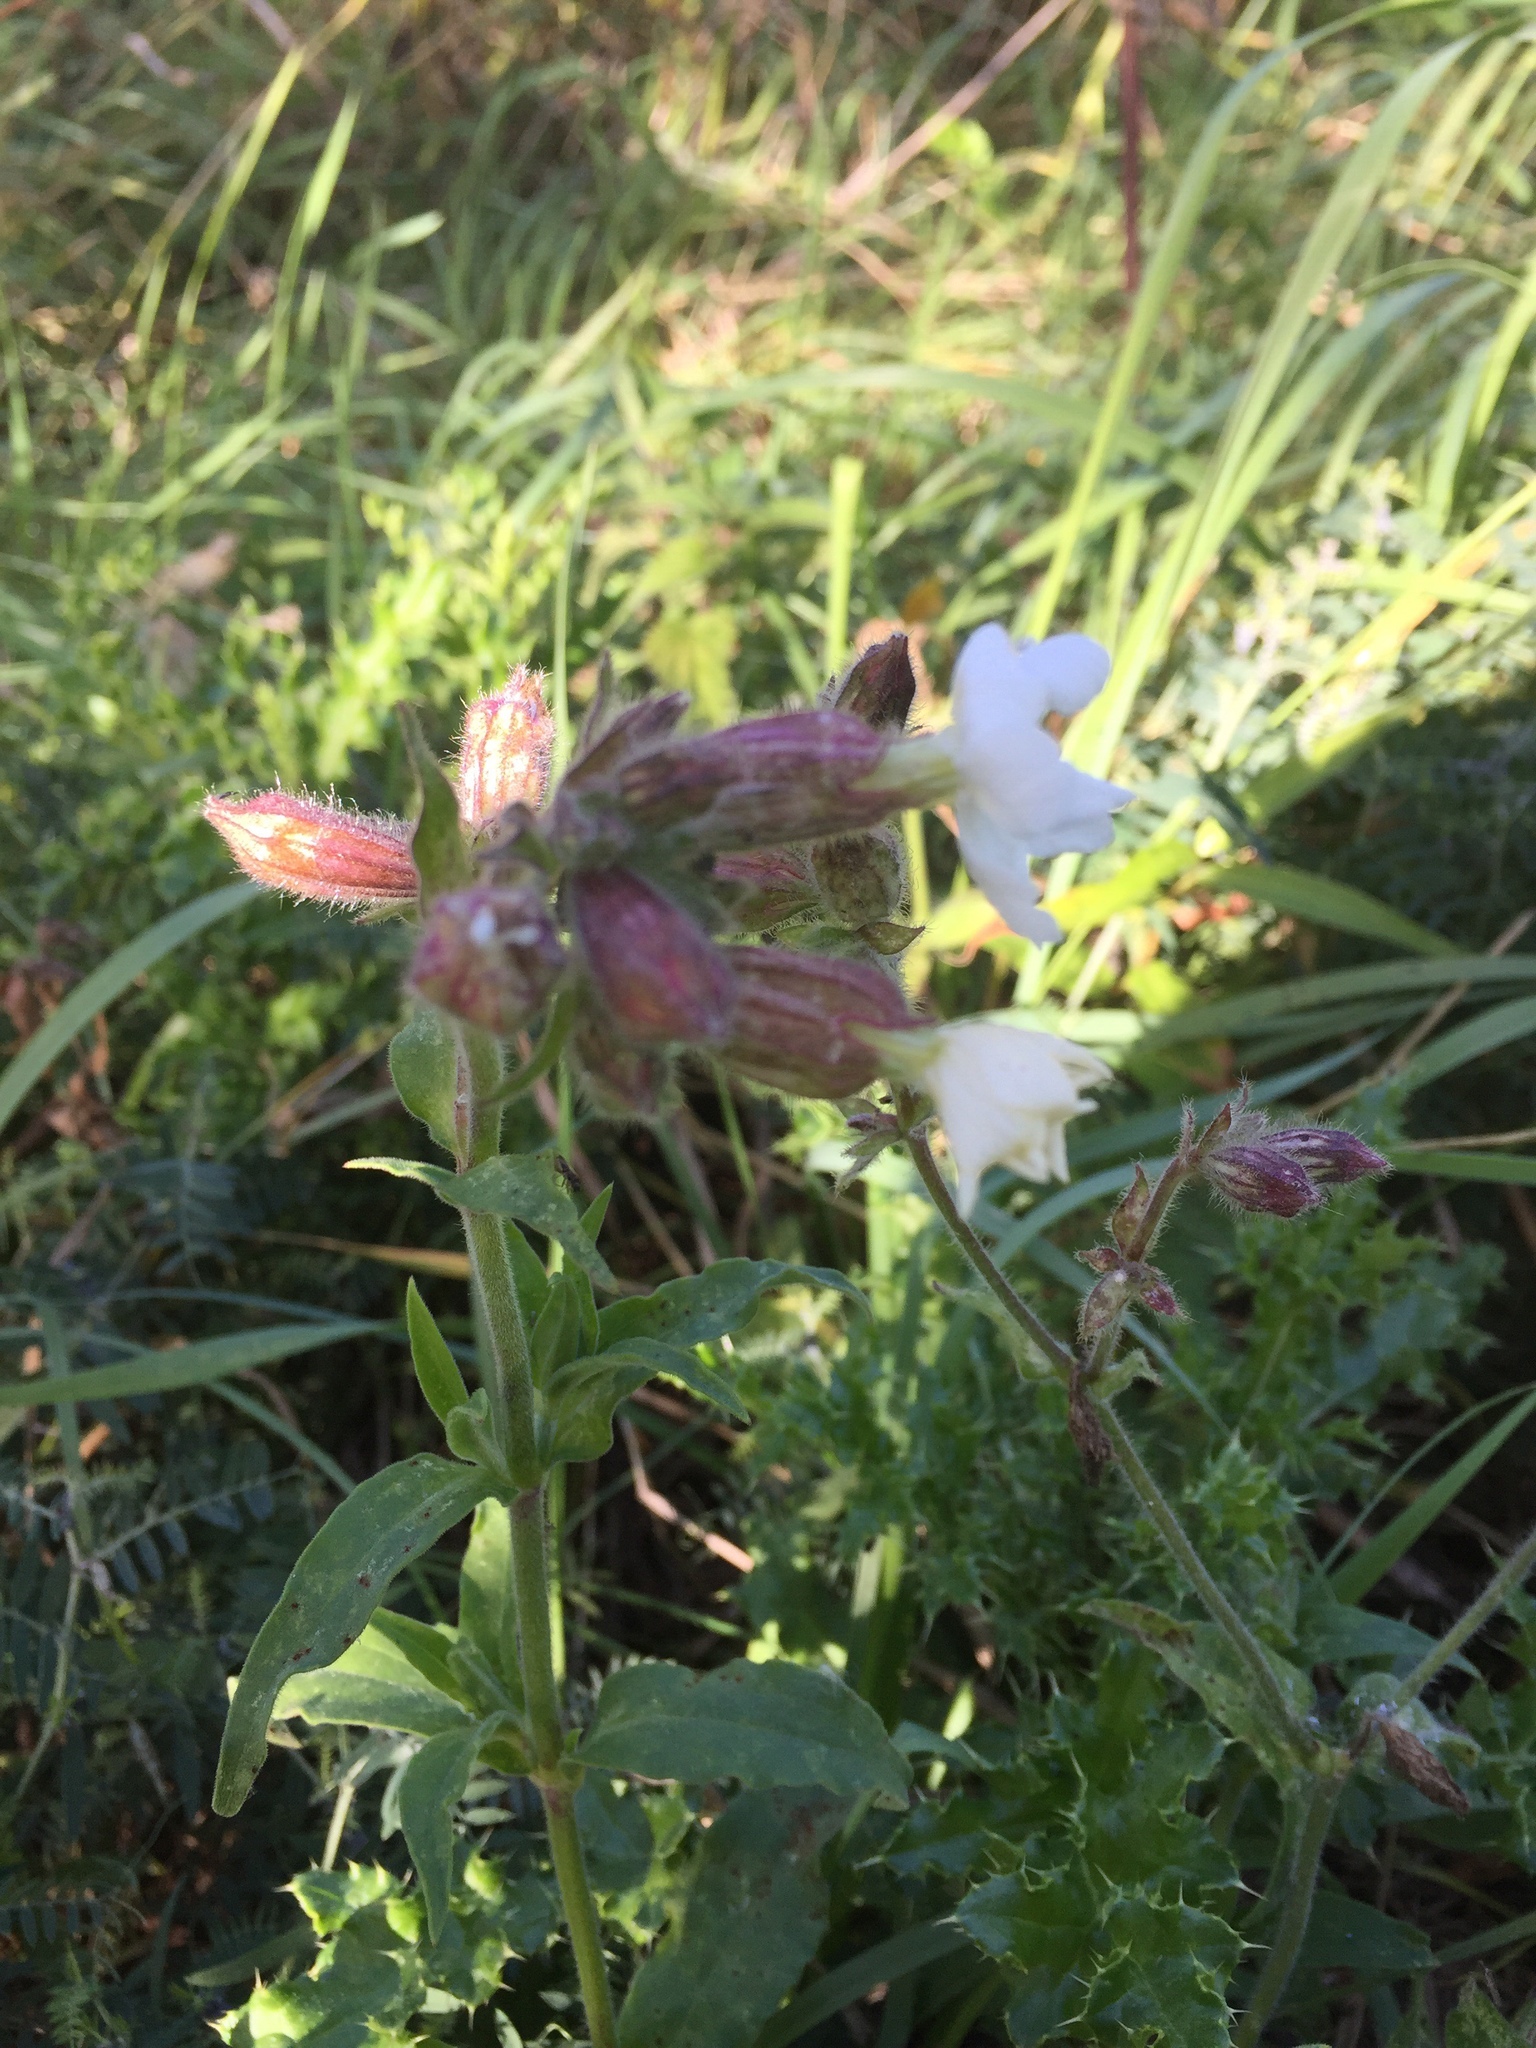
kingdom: Plantae
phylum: Tracheophyta
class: Magnoliopsida
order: Caryophyllales
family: Caryophyllaceae
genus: Silene
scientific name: Silene latifolia
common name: White campion
